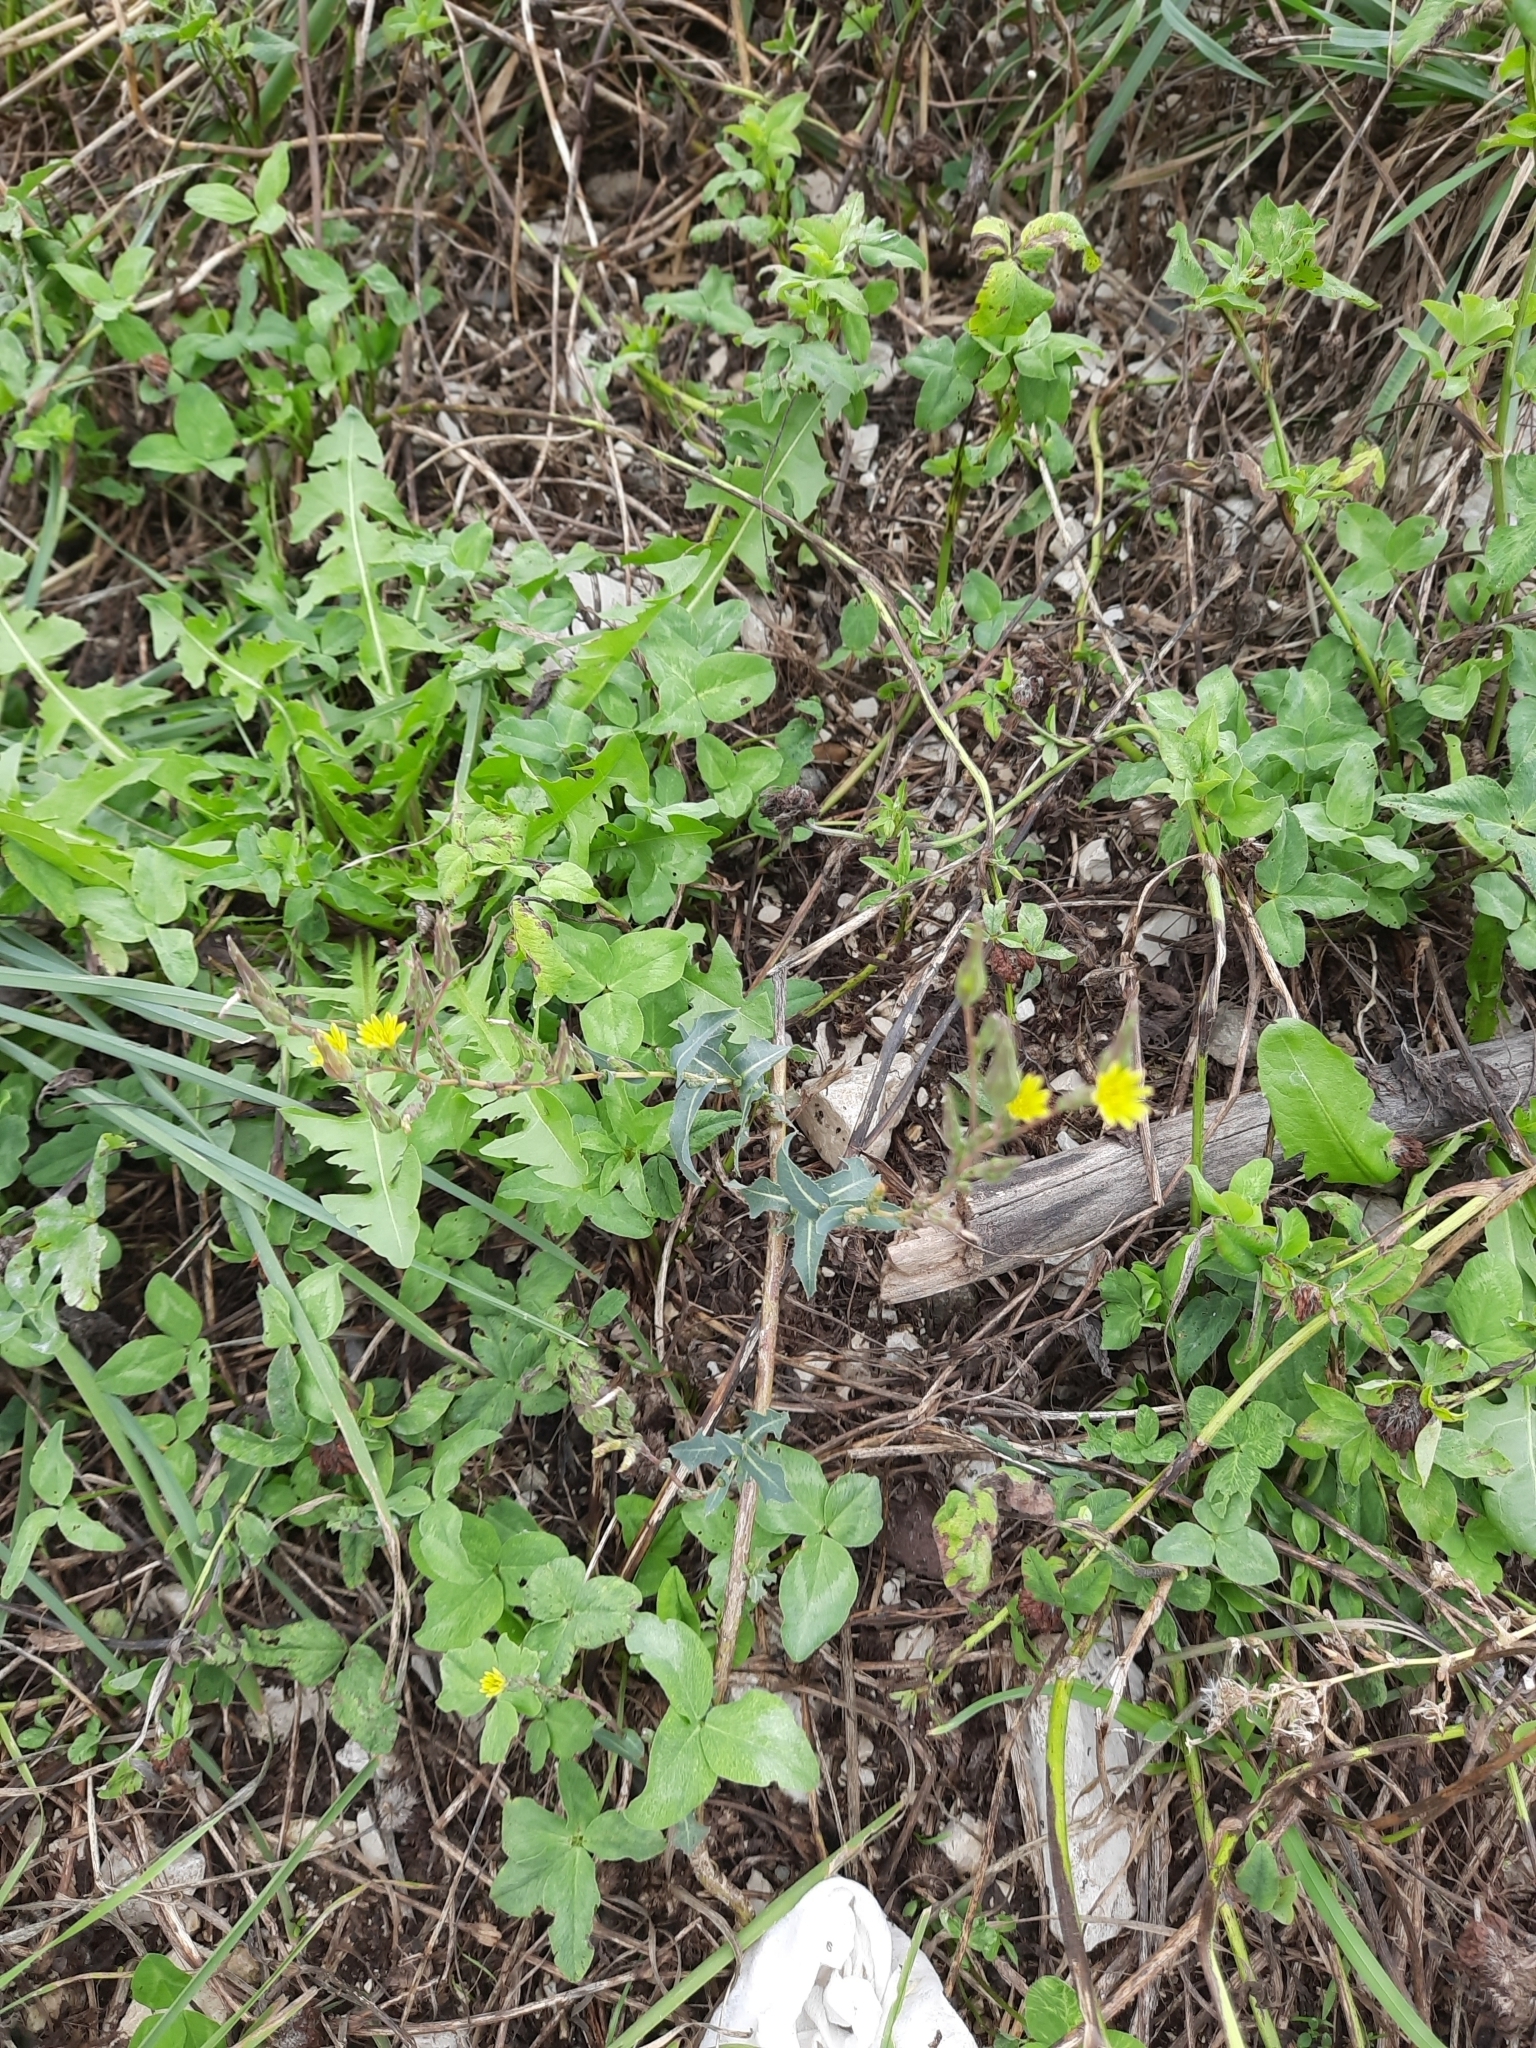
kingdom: Plantae
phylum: Tracheophyta
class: Magnoliopsida
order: Asterales
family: Asteraceae
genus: Lactuca
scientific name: Lactuca serriola
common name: Prickly lettuce
